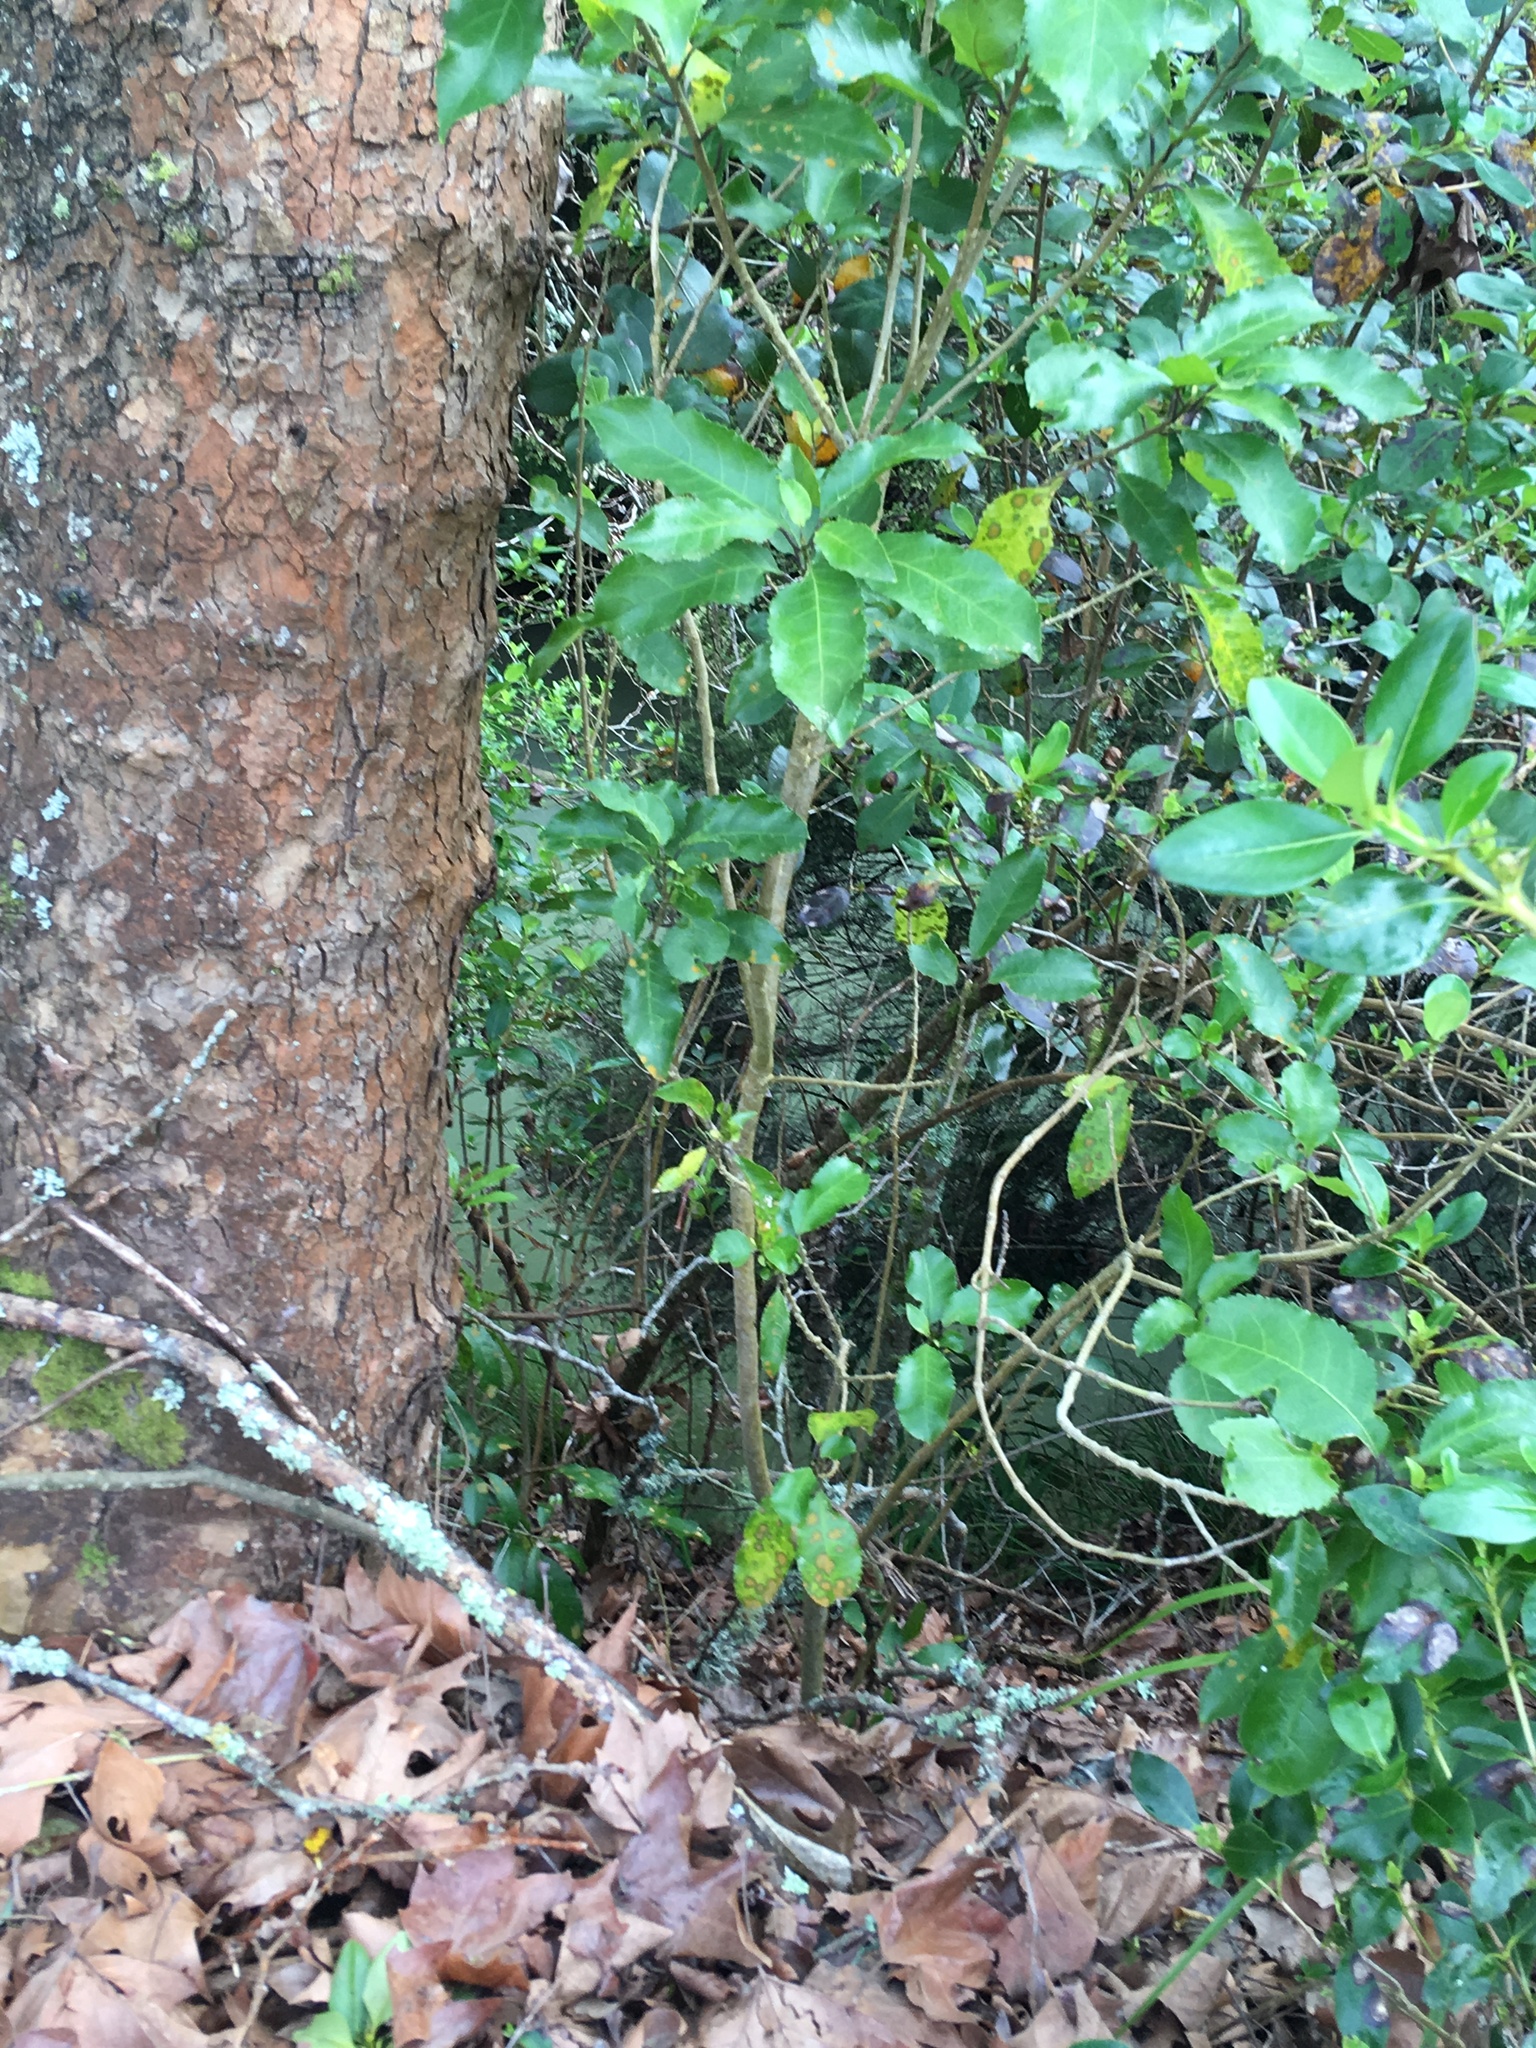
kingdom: Plantae
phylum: Tracheophyta
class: Magnoliopsida
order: Gentianales
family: Rubiaceae
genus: Coprosma
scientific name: Coprosma robusta
